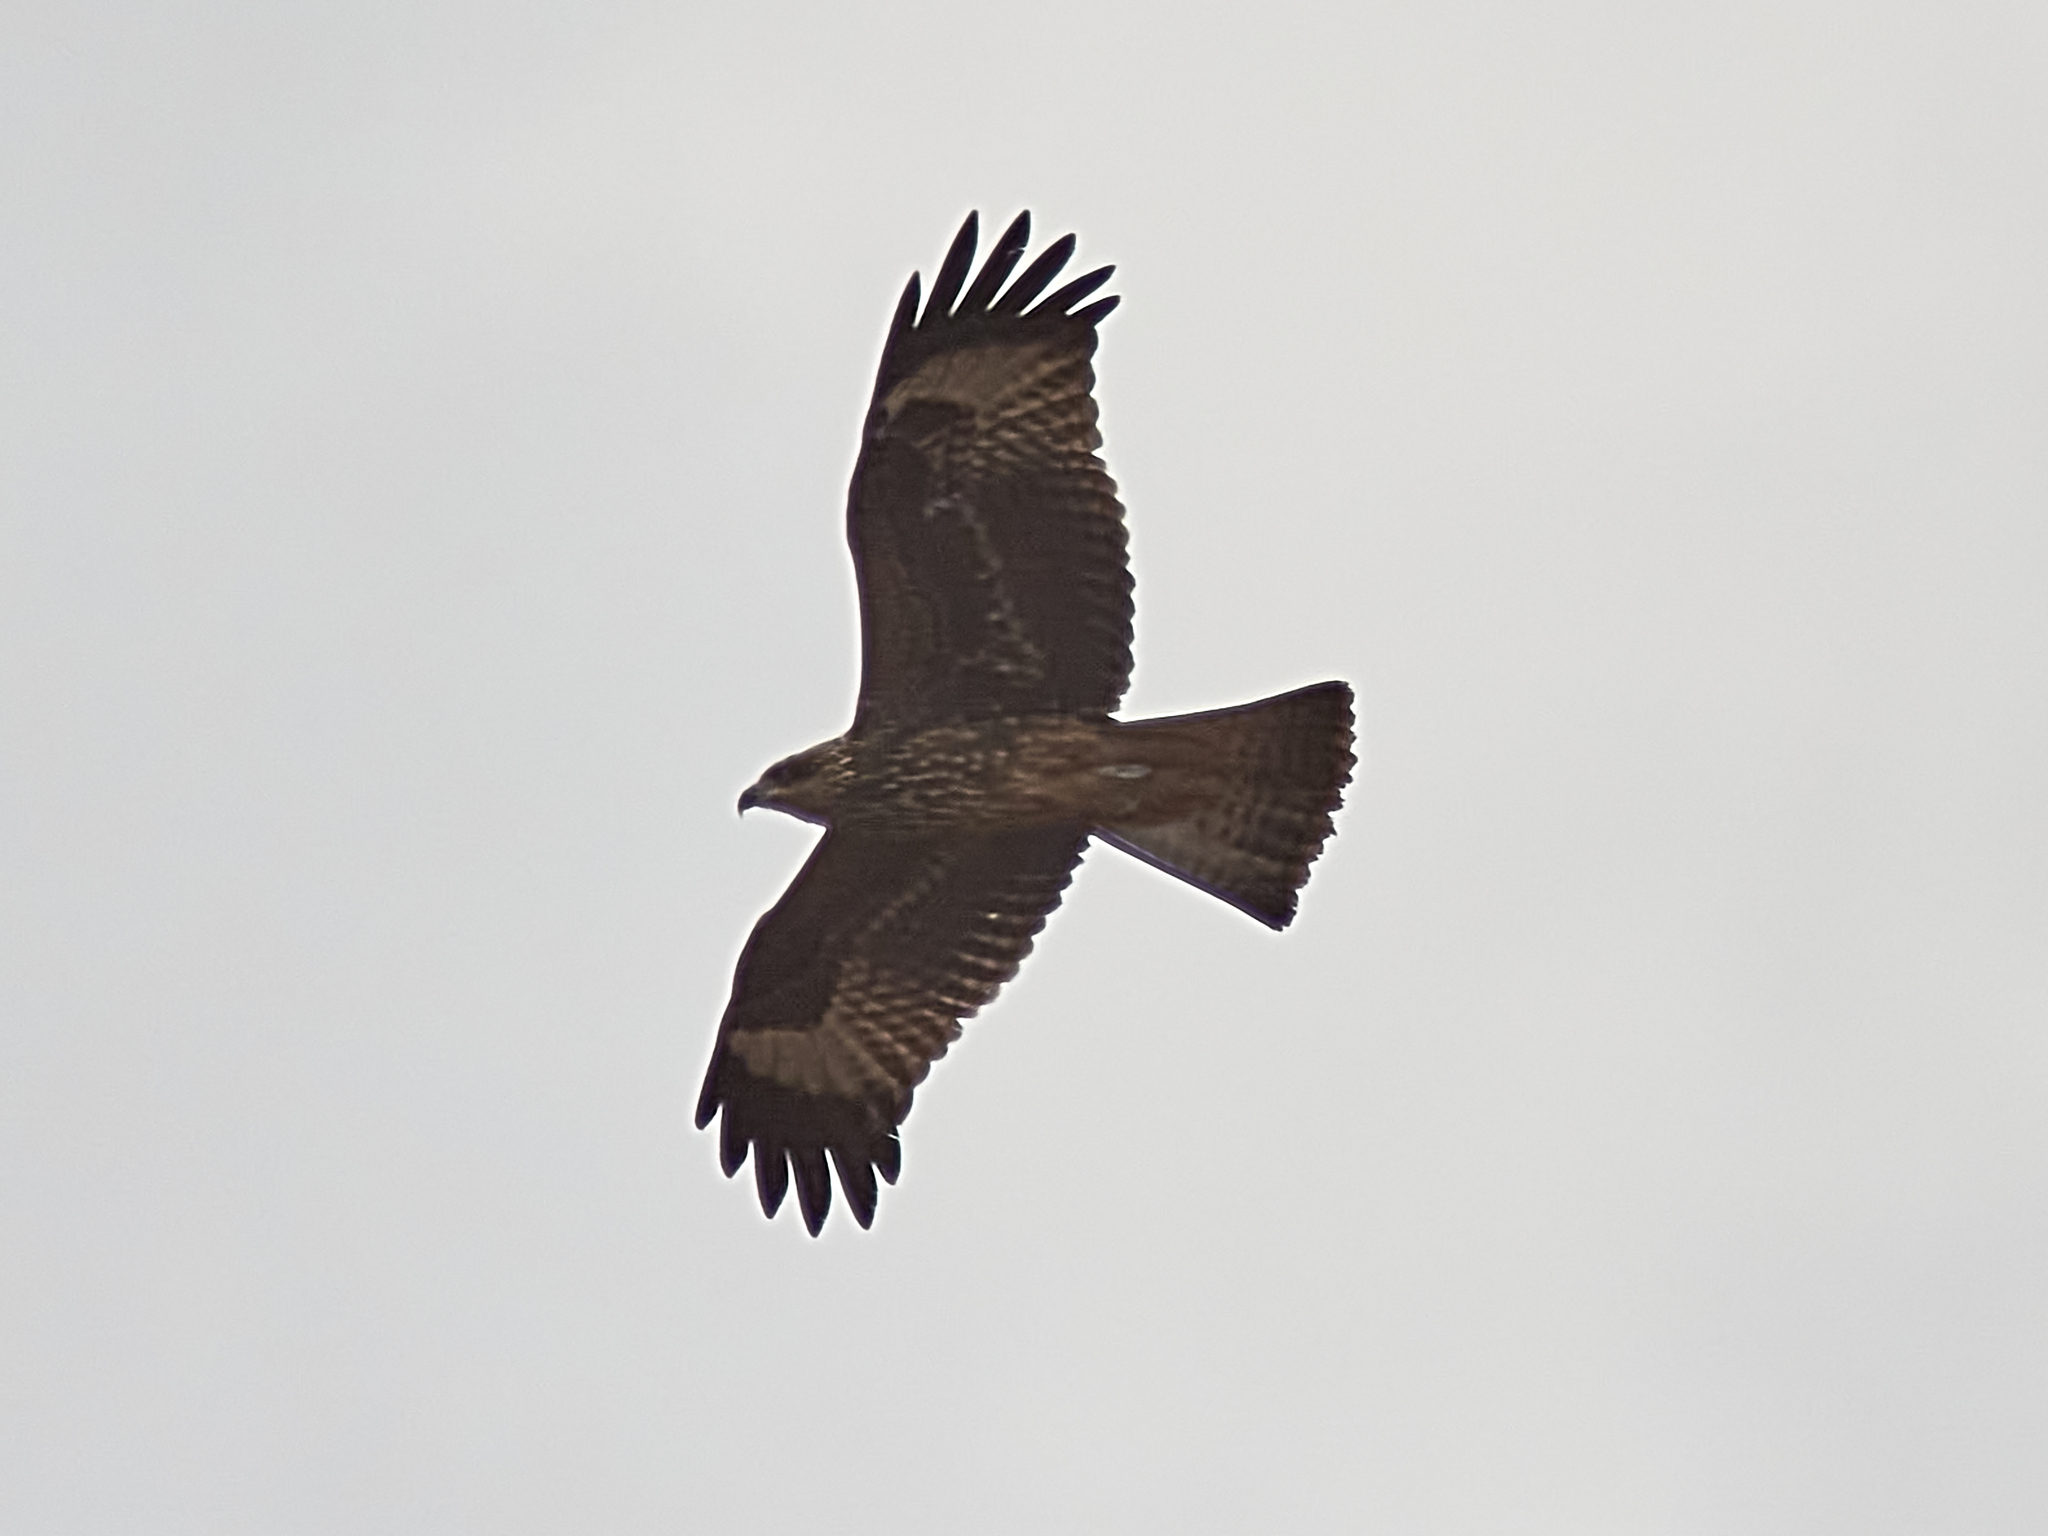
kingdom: Animalia
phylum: Chordata
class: Aves
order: Accipitriformes
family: Accipitridae
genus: Milvus
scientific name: Milvus migrans
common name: Black kite
